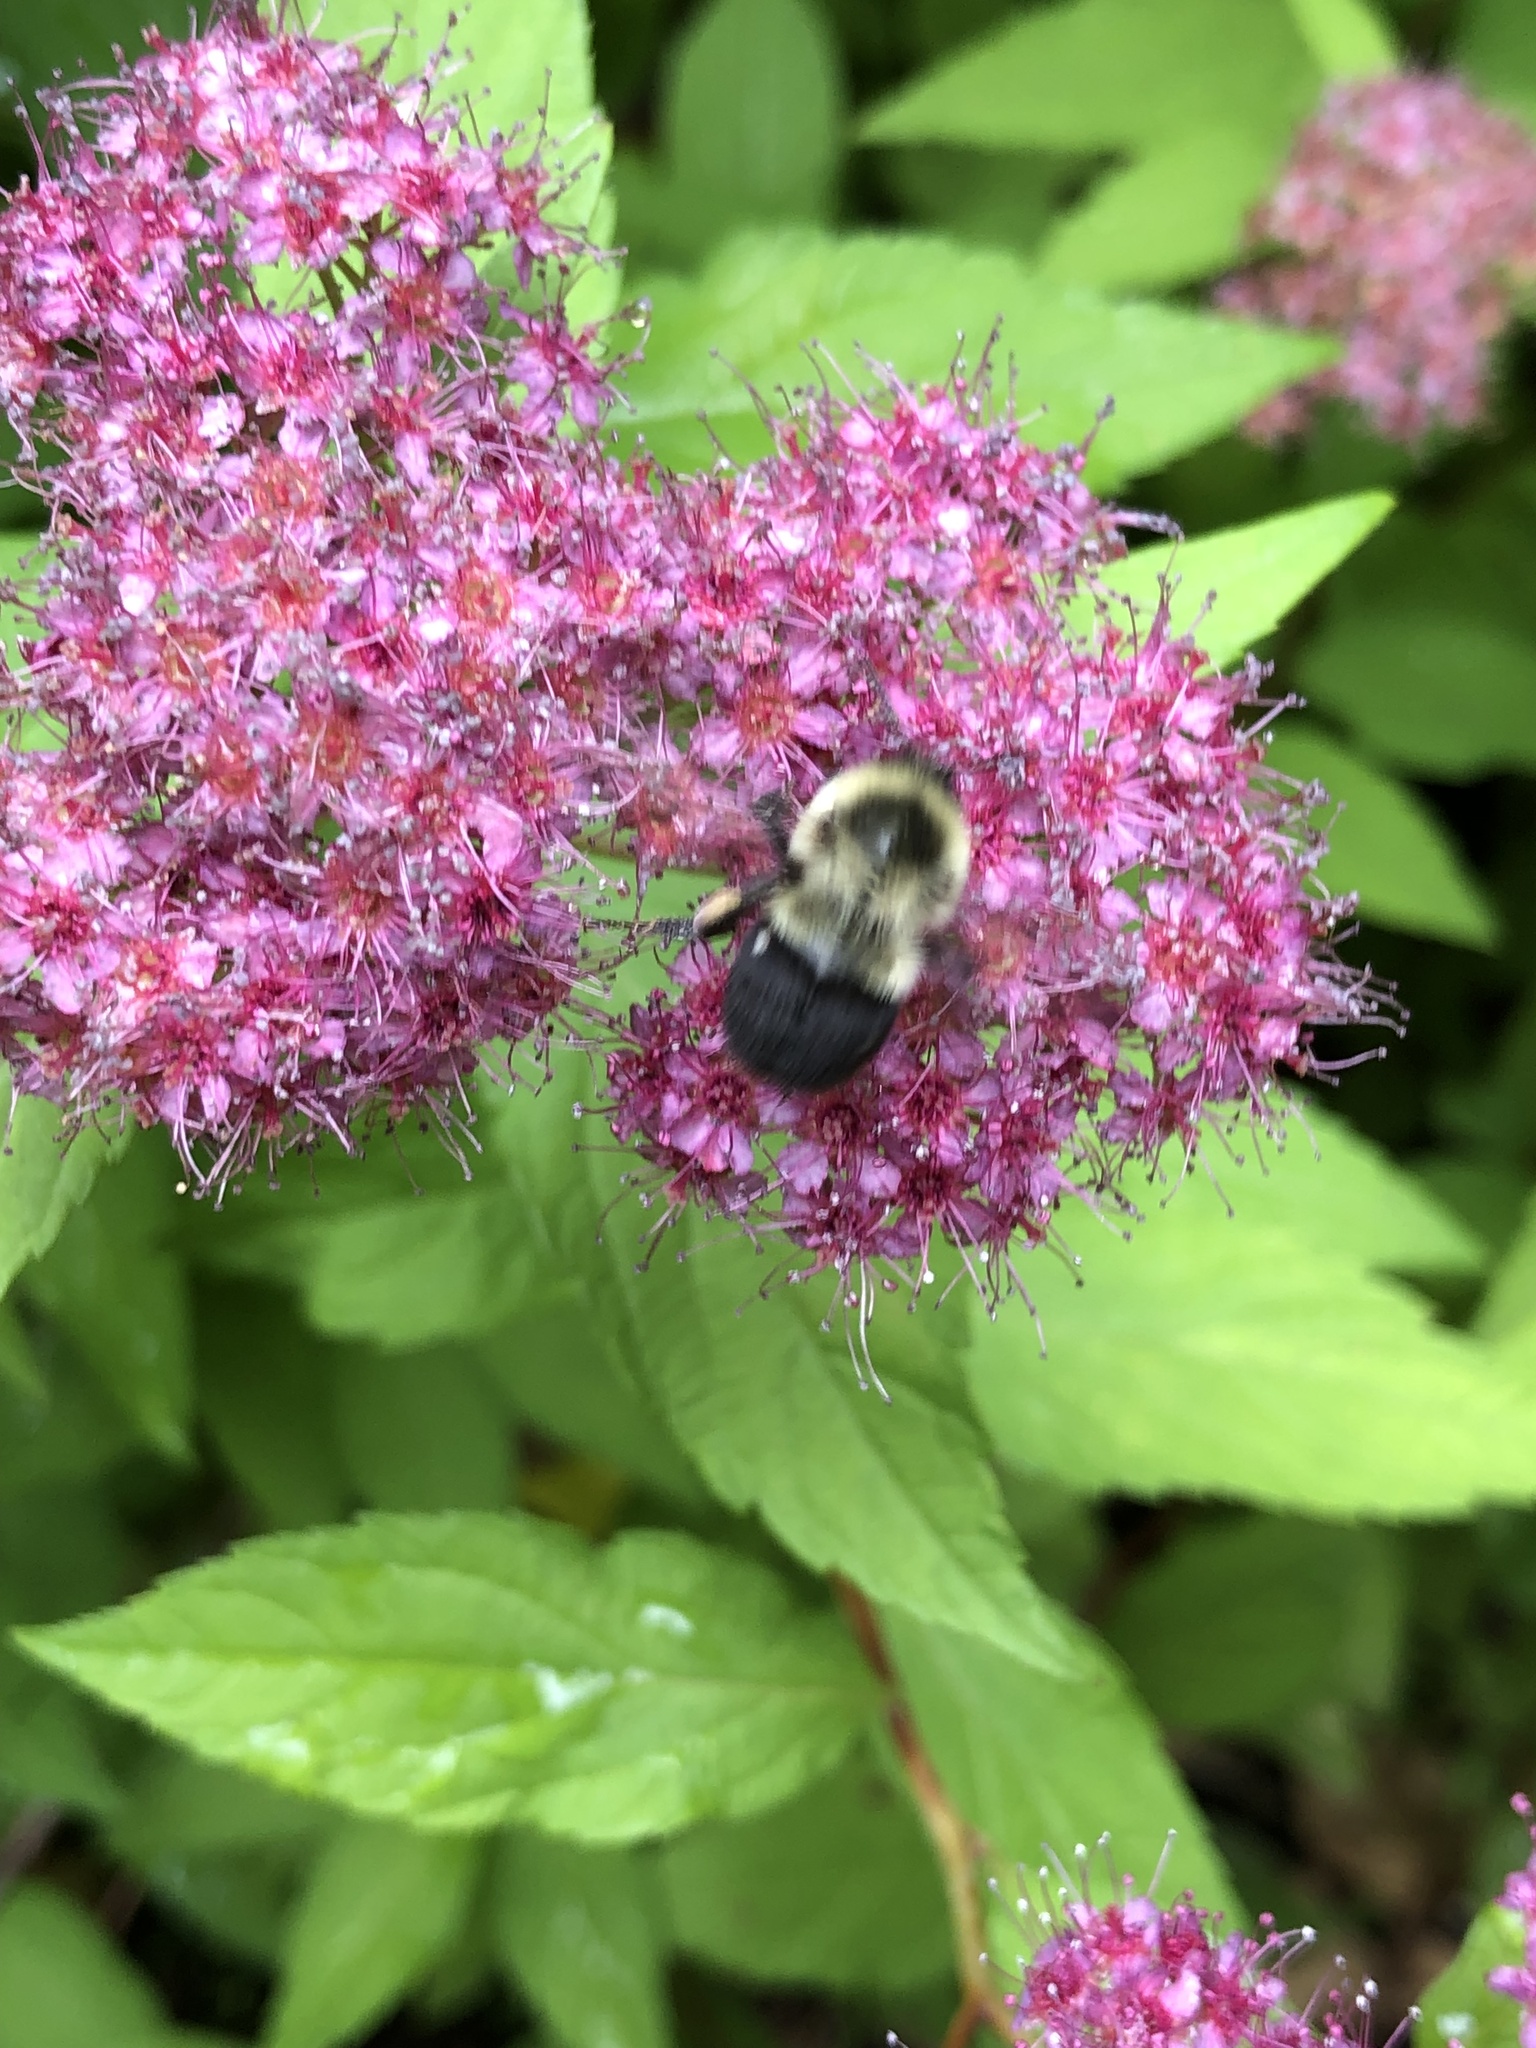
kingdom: Animalia
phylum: Arthropoda
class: Insecta
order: Hymenoptera
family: Apidae
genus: Bombus
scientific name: Bombus impatiens
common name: Common eastern bumble bee
